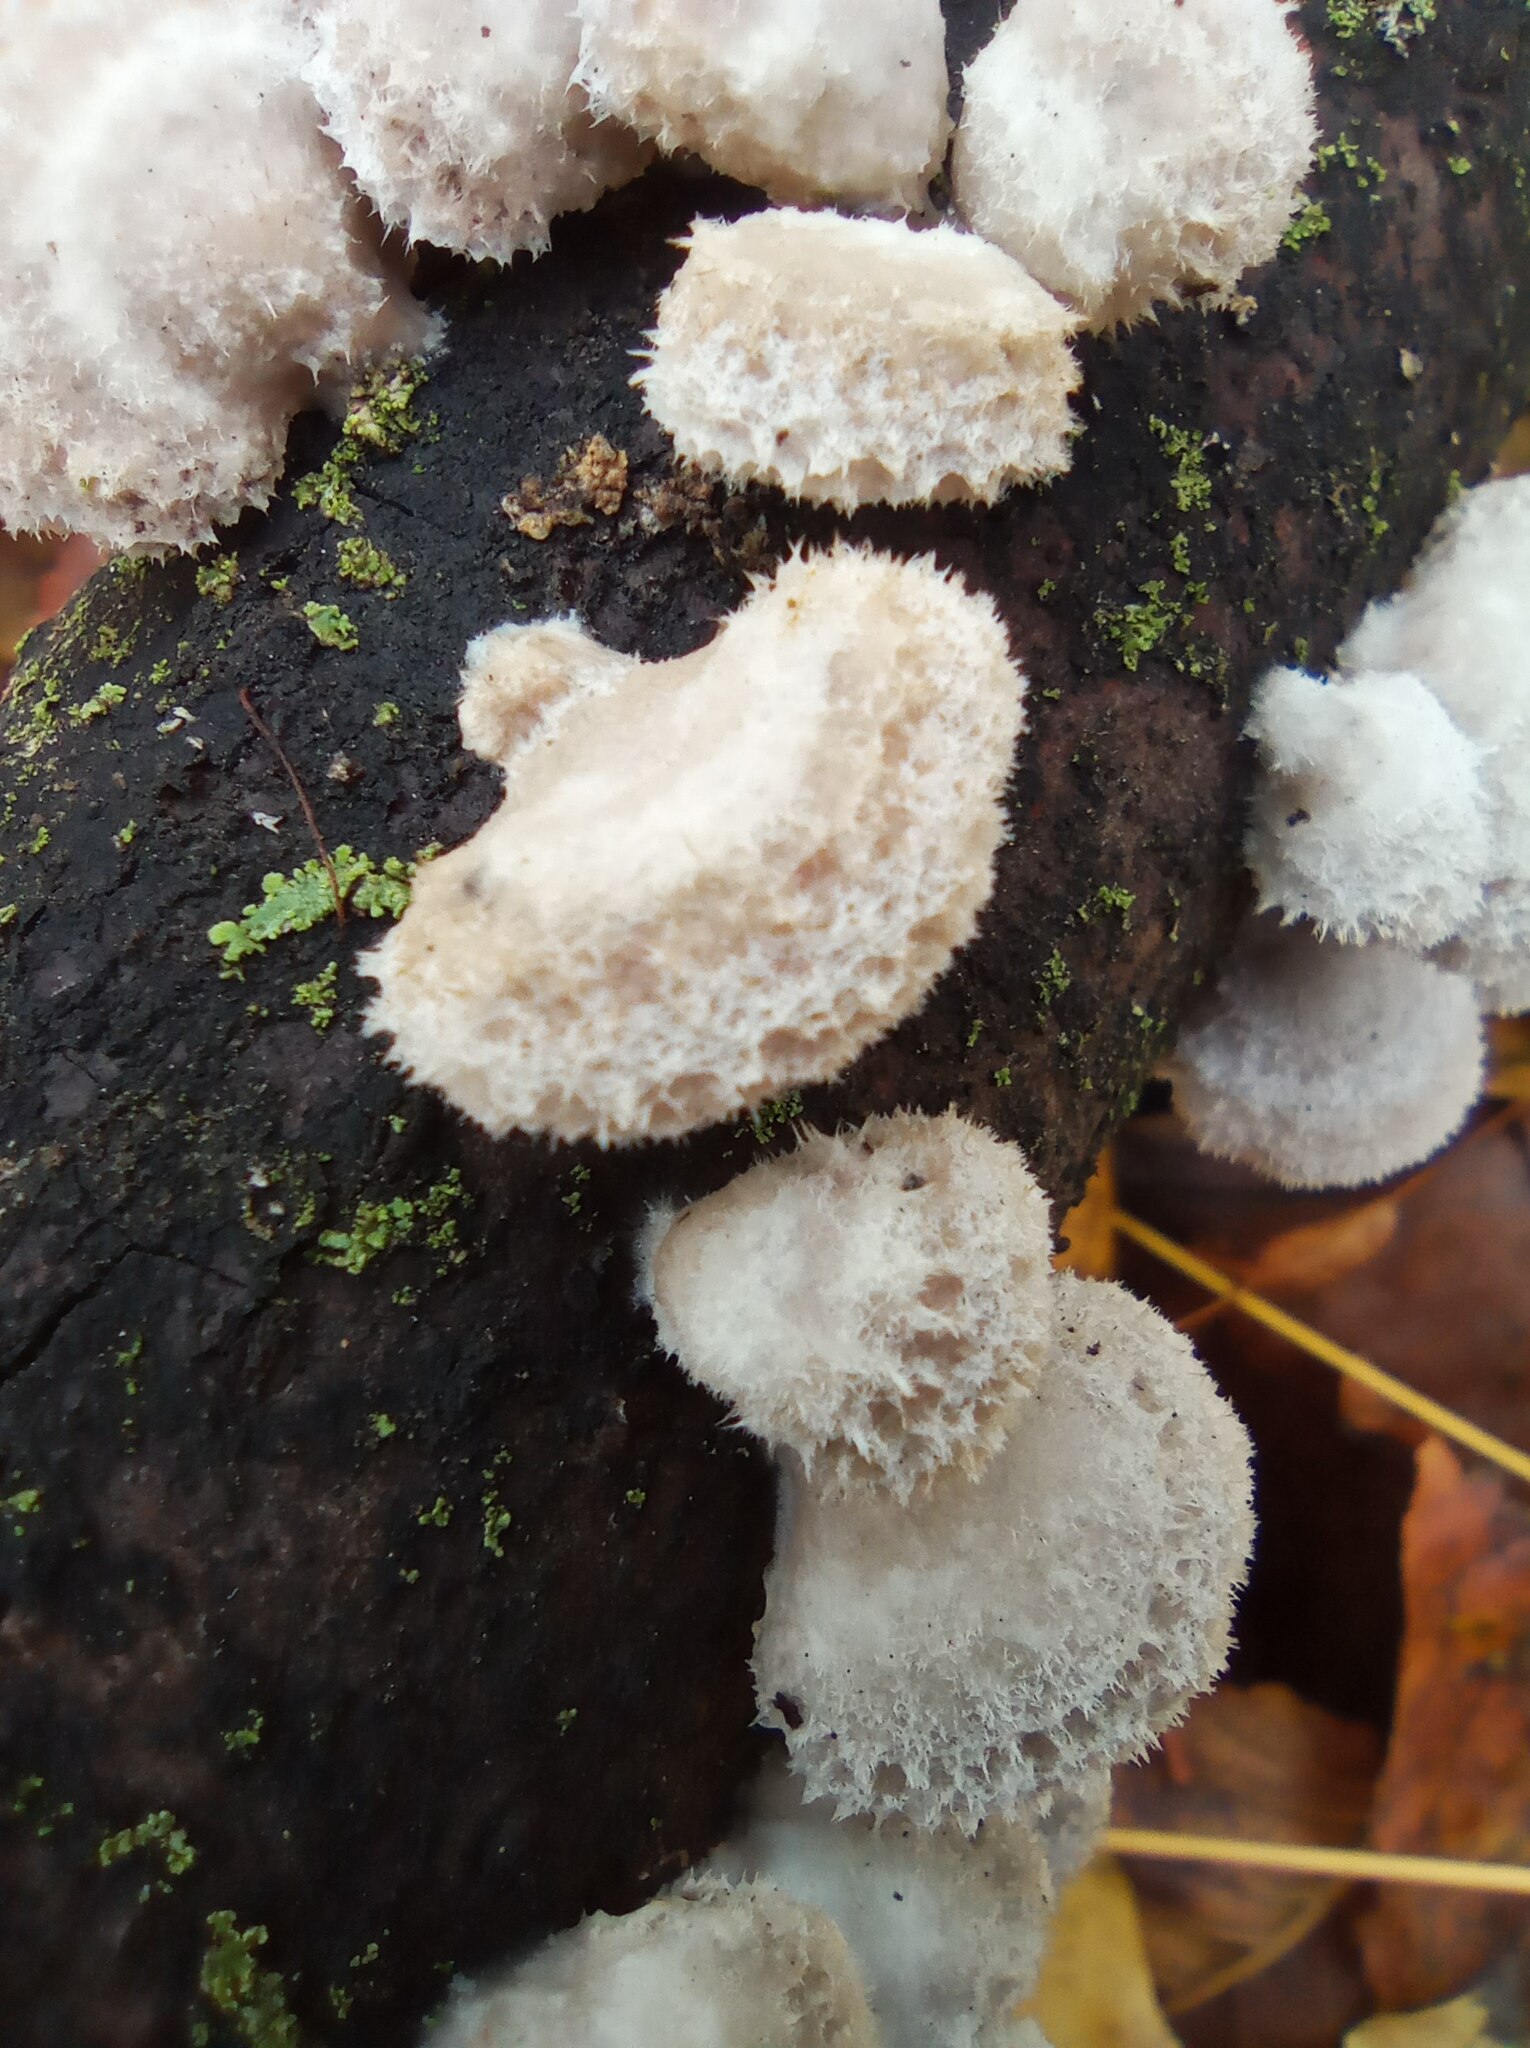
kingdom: Fungi
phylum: Basidiomycota
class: Agaricomycetes
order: Agaricales
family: Schizophyllaceae
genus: Schizophyllum
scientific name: Schizophyllum commune
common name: Common porecrust
